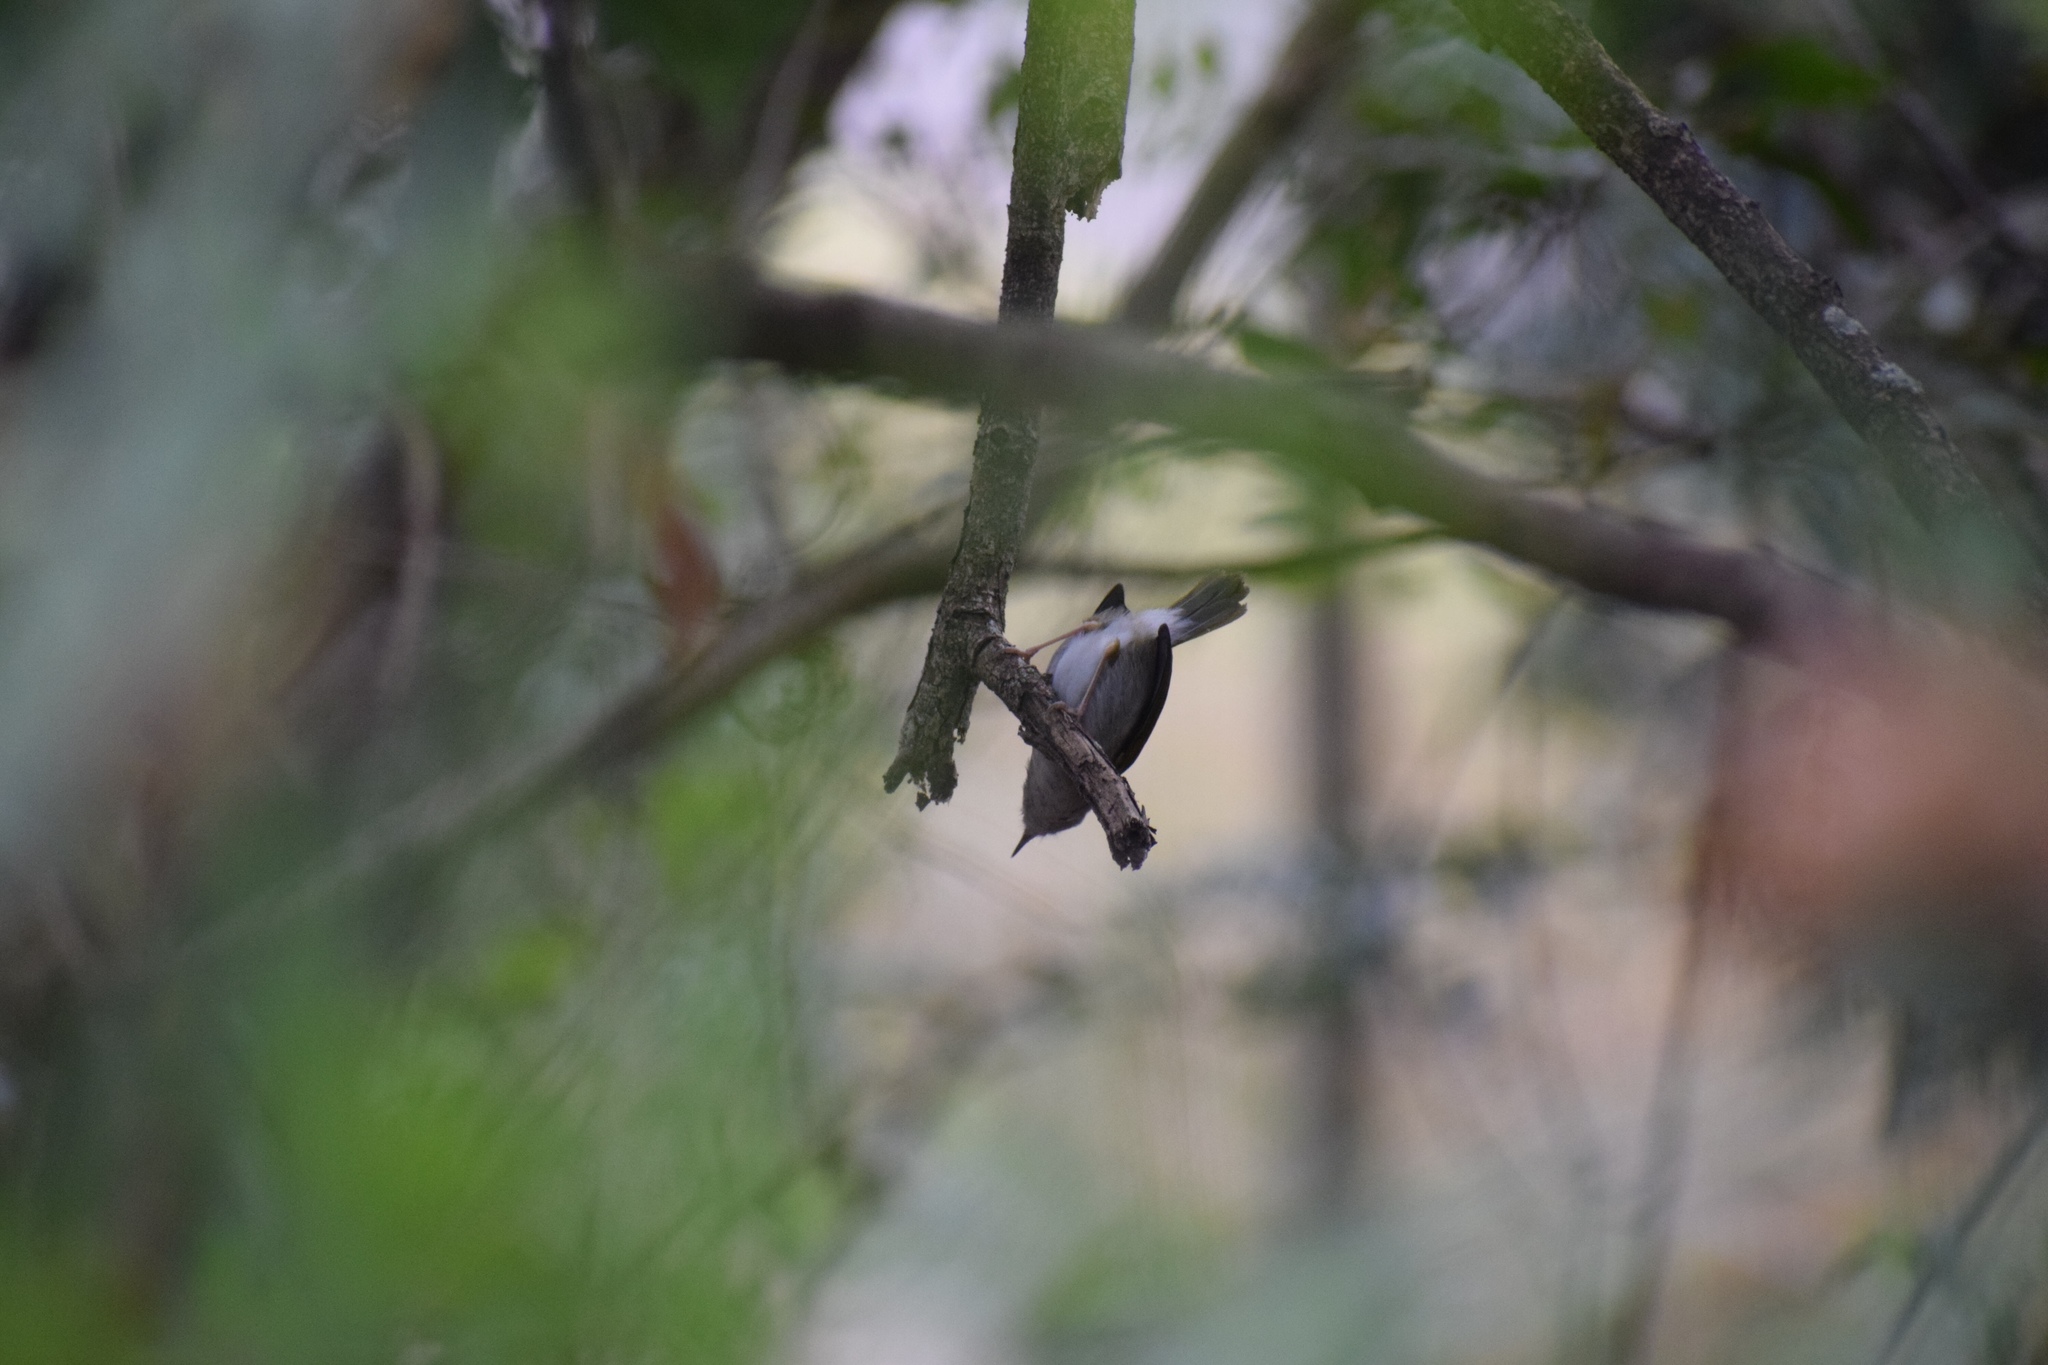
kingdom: Animalia
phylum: Chordata
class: Aves
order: Passeriformes
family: Cisticolidae
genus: Camaroptera
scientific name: Camaroptera brachyura
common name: Green-backed camaroptera
